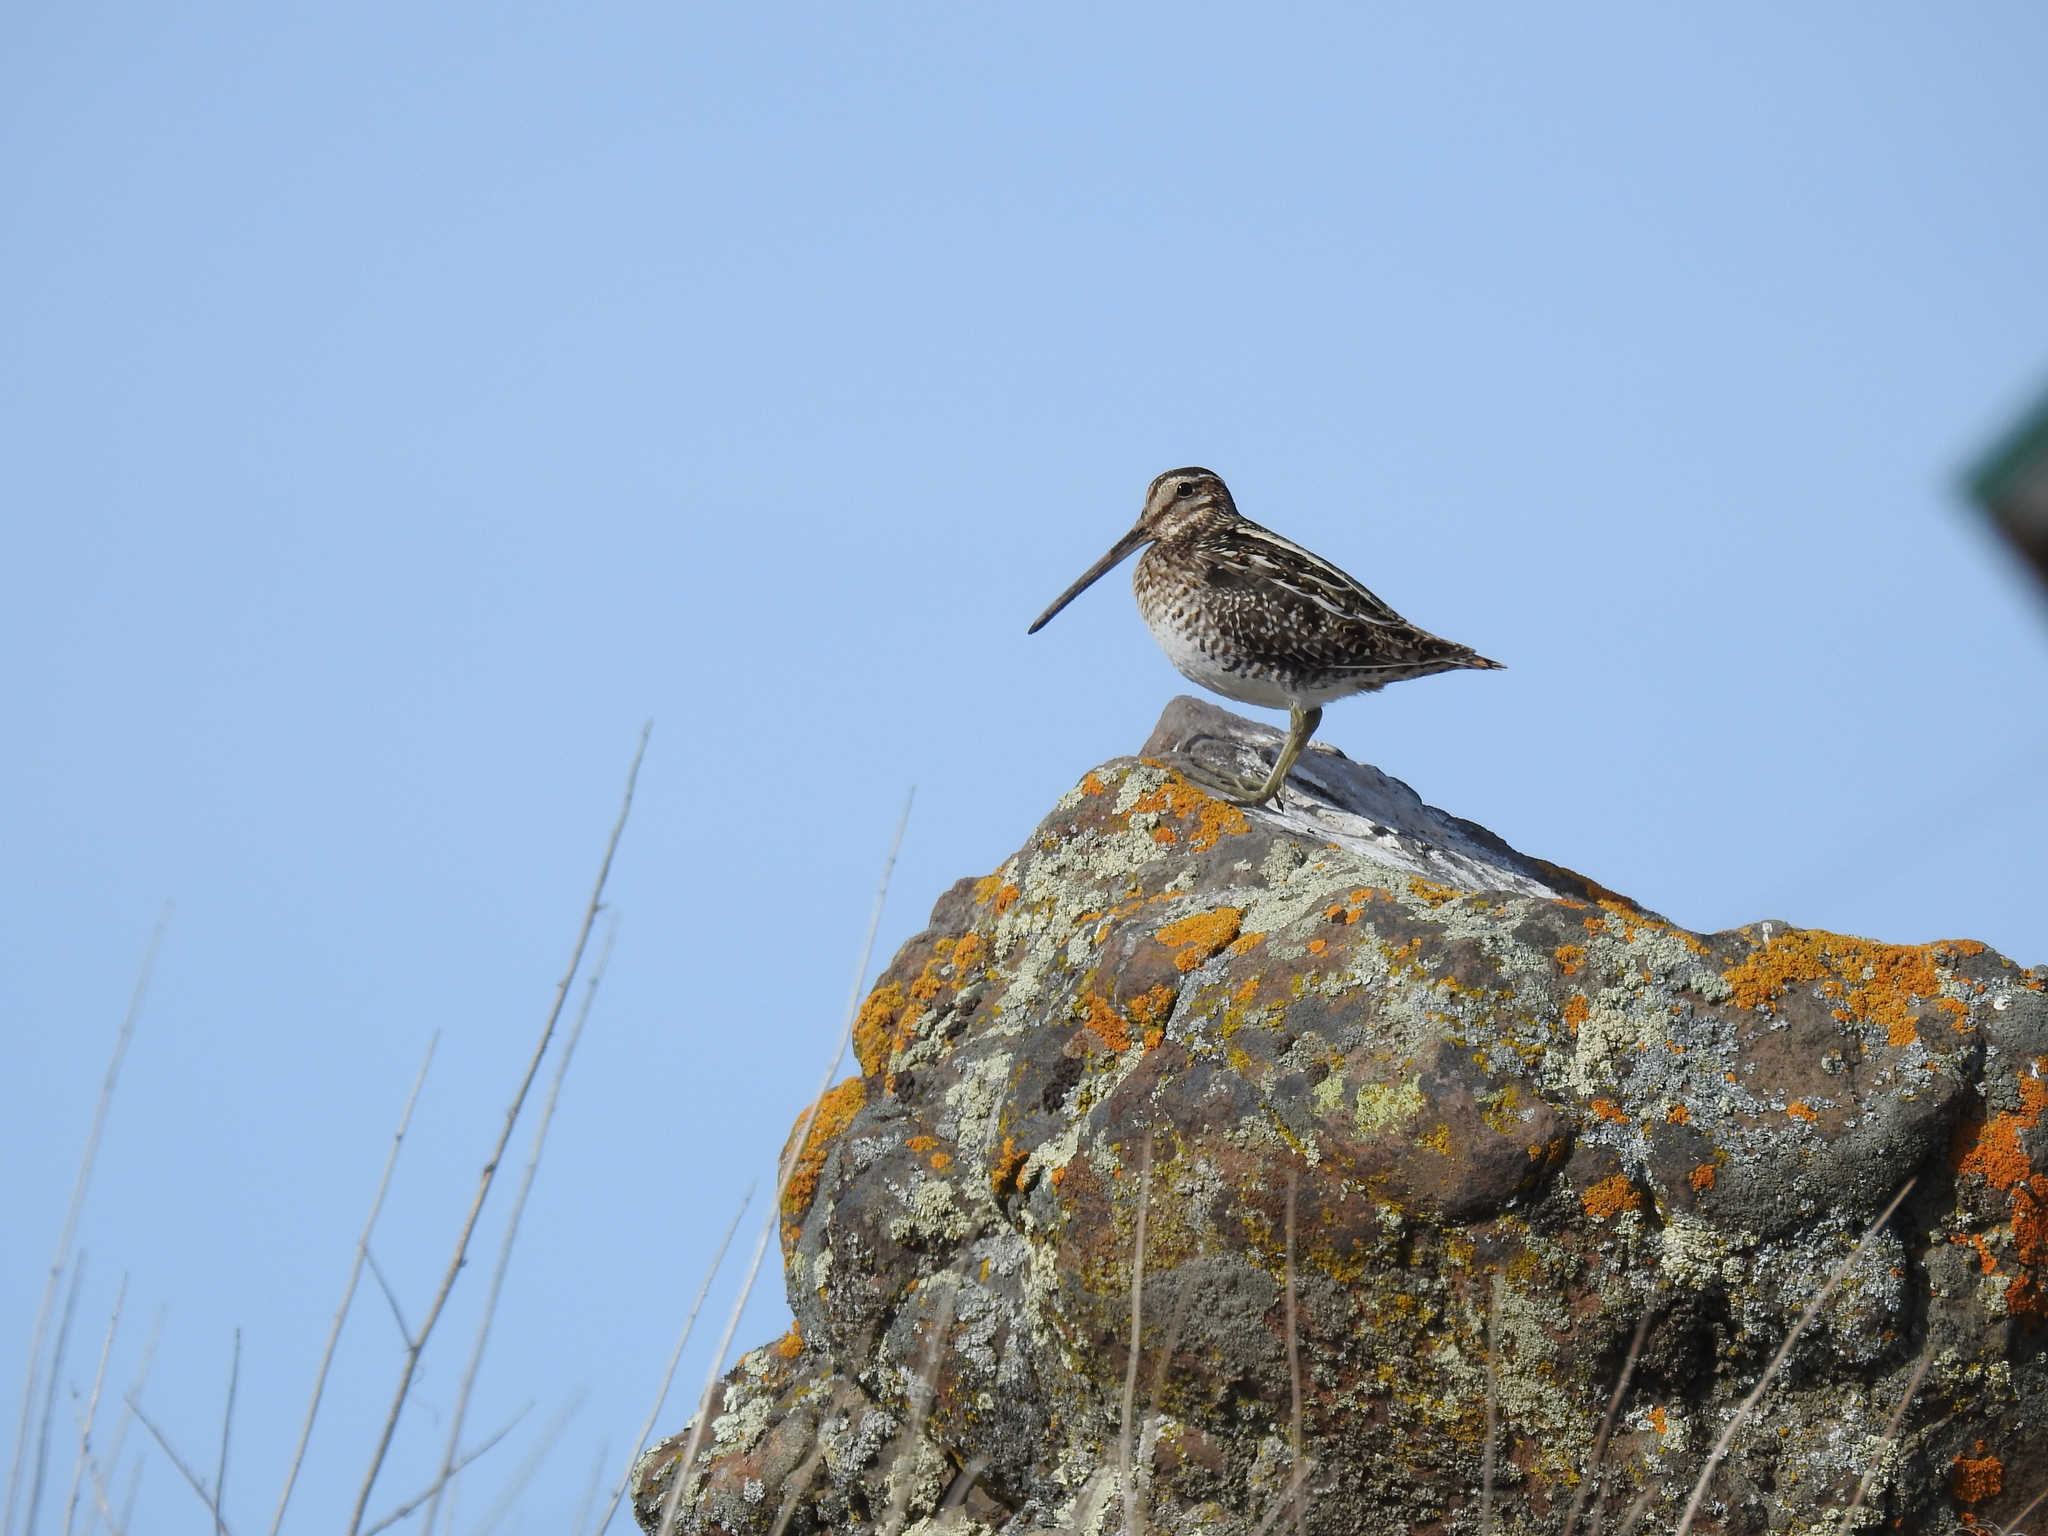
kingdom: Animalia
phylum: Chordata
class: Aves
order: Charadriiformes
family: Scolopacidae
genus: Gallinago
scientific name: Gallinago delicata
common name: Wilson's snipe
